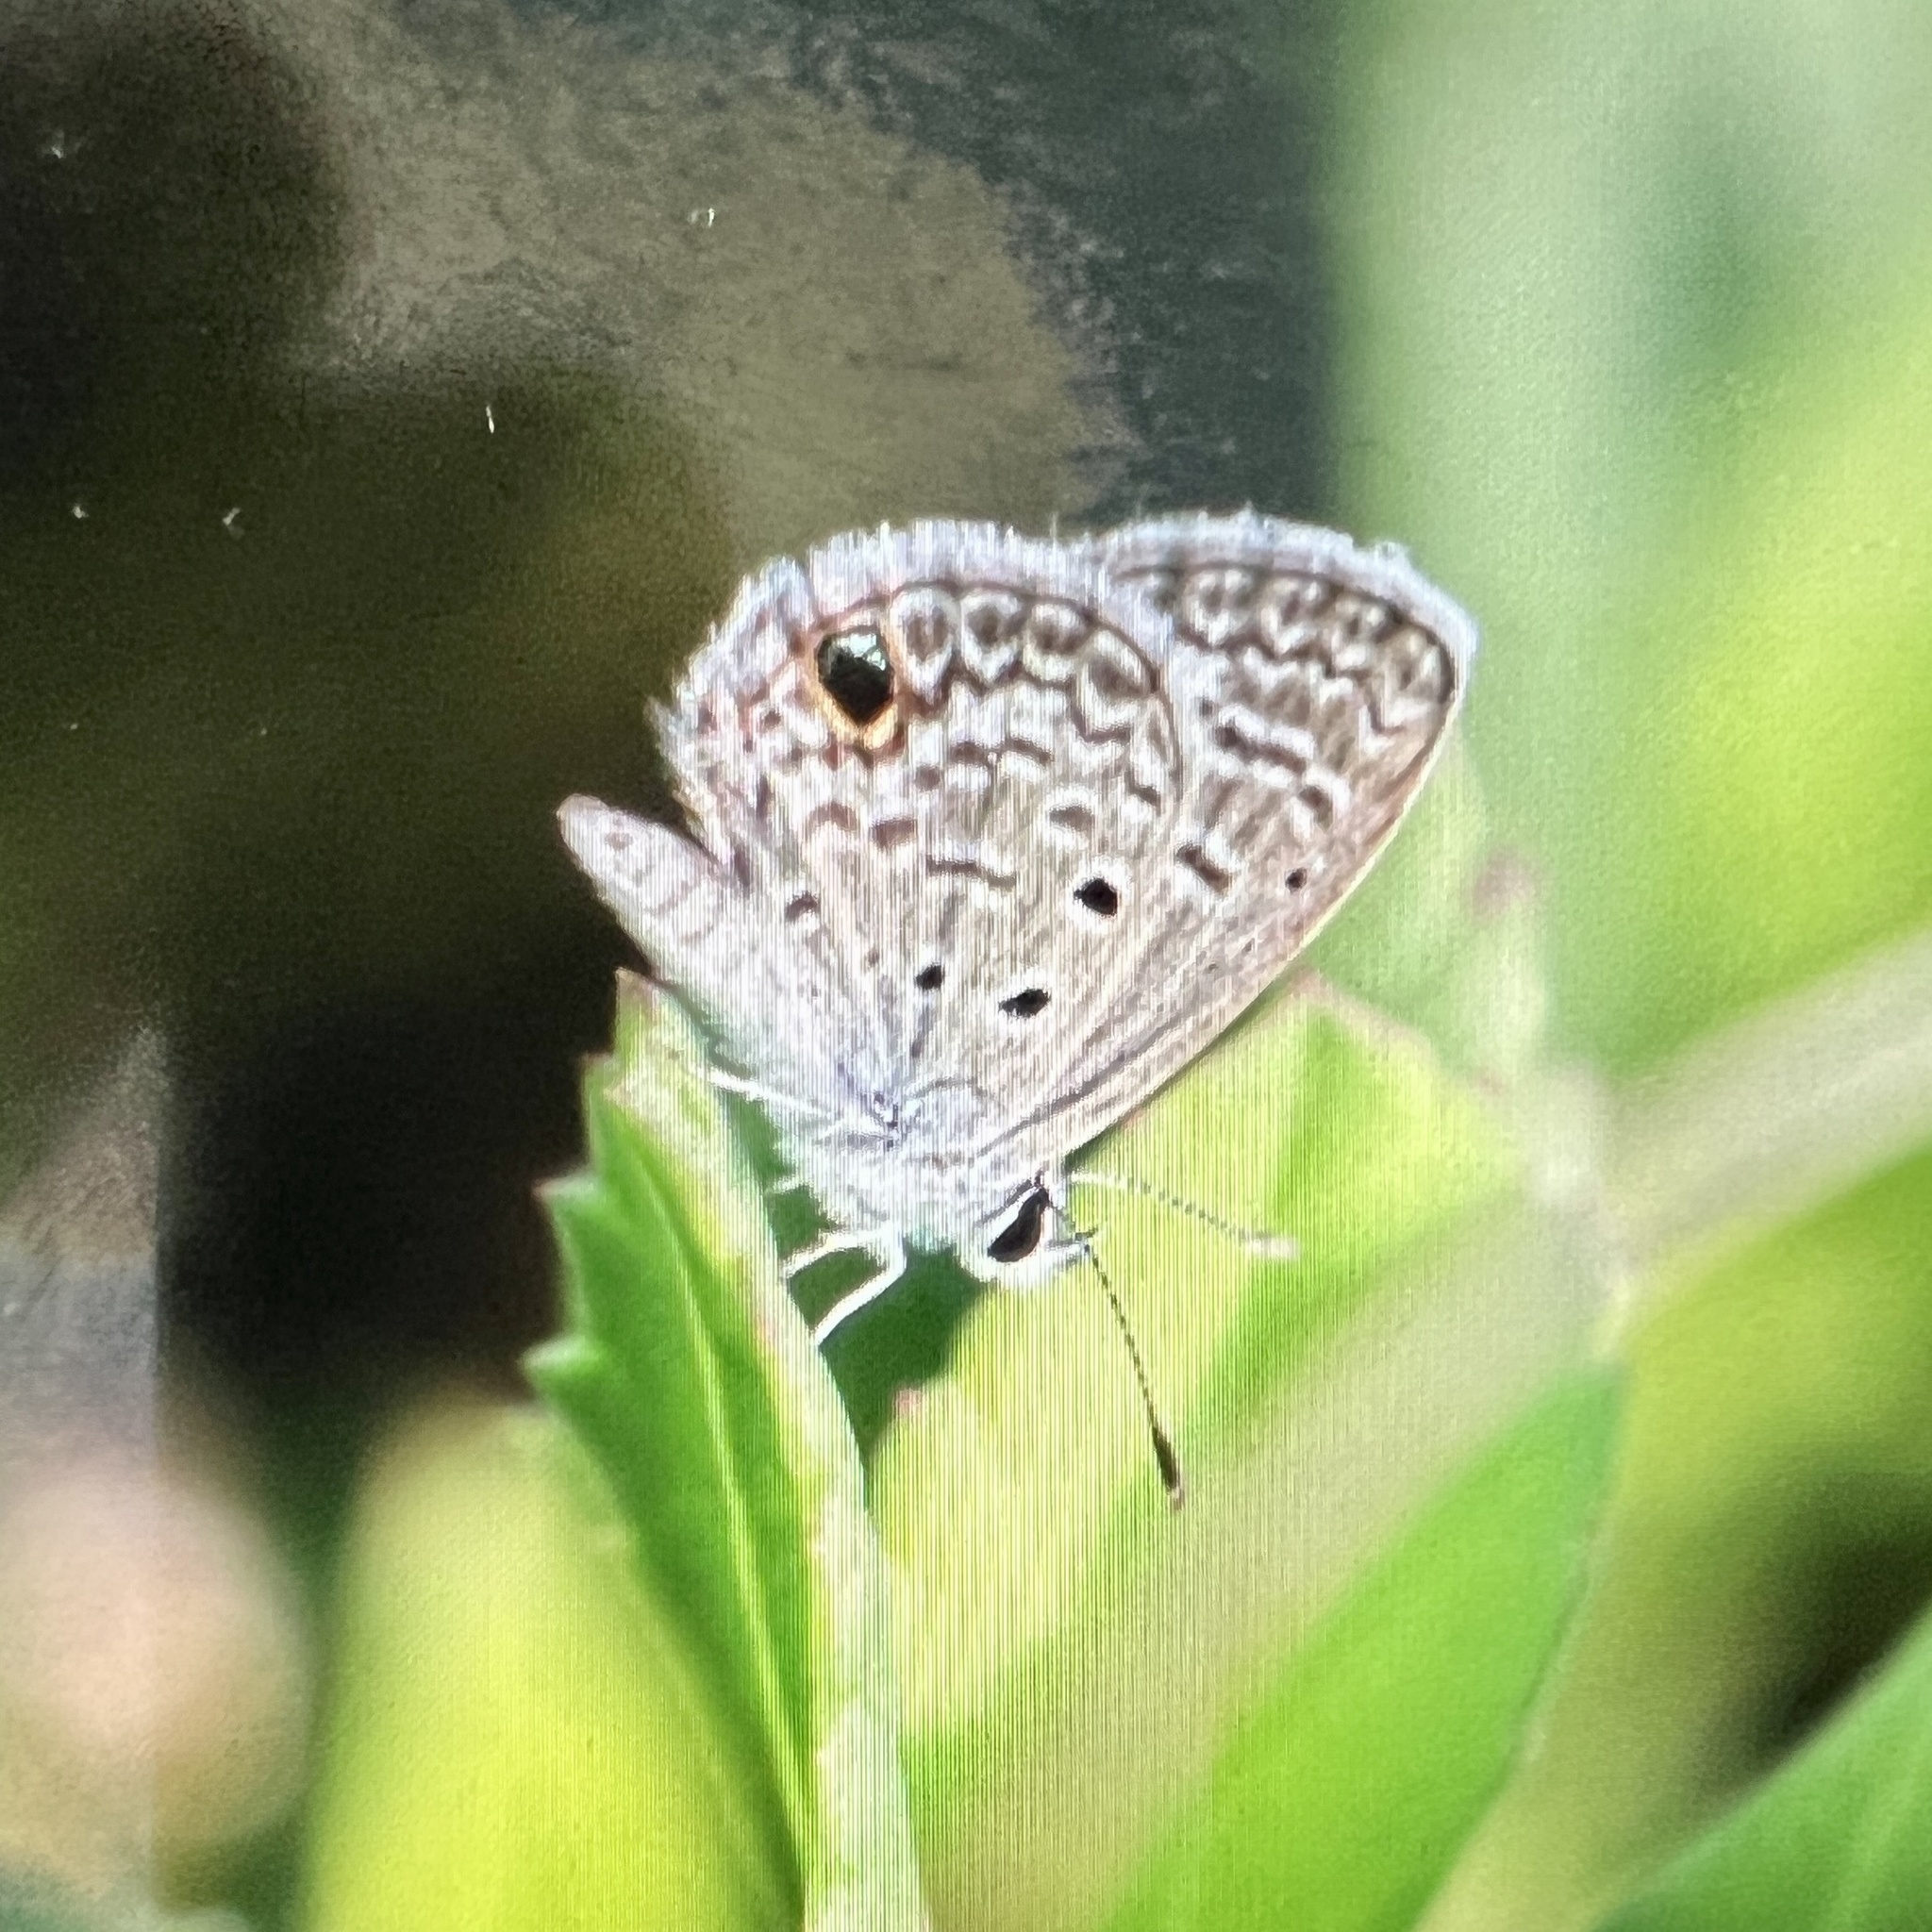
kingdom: Animalia
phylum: Arthropoda
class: Insecta
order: Lepidoptera
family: Lycaenidae
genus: Hemiargus
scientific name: Hemiargus ceraunus
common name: Ceraunus blue
